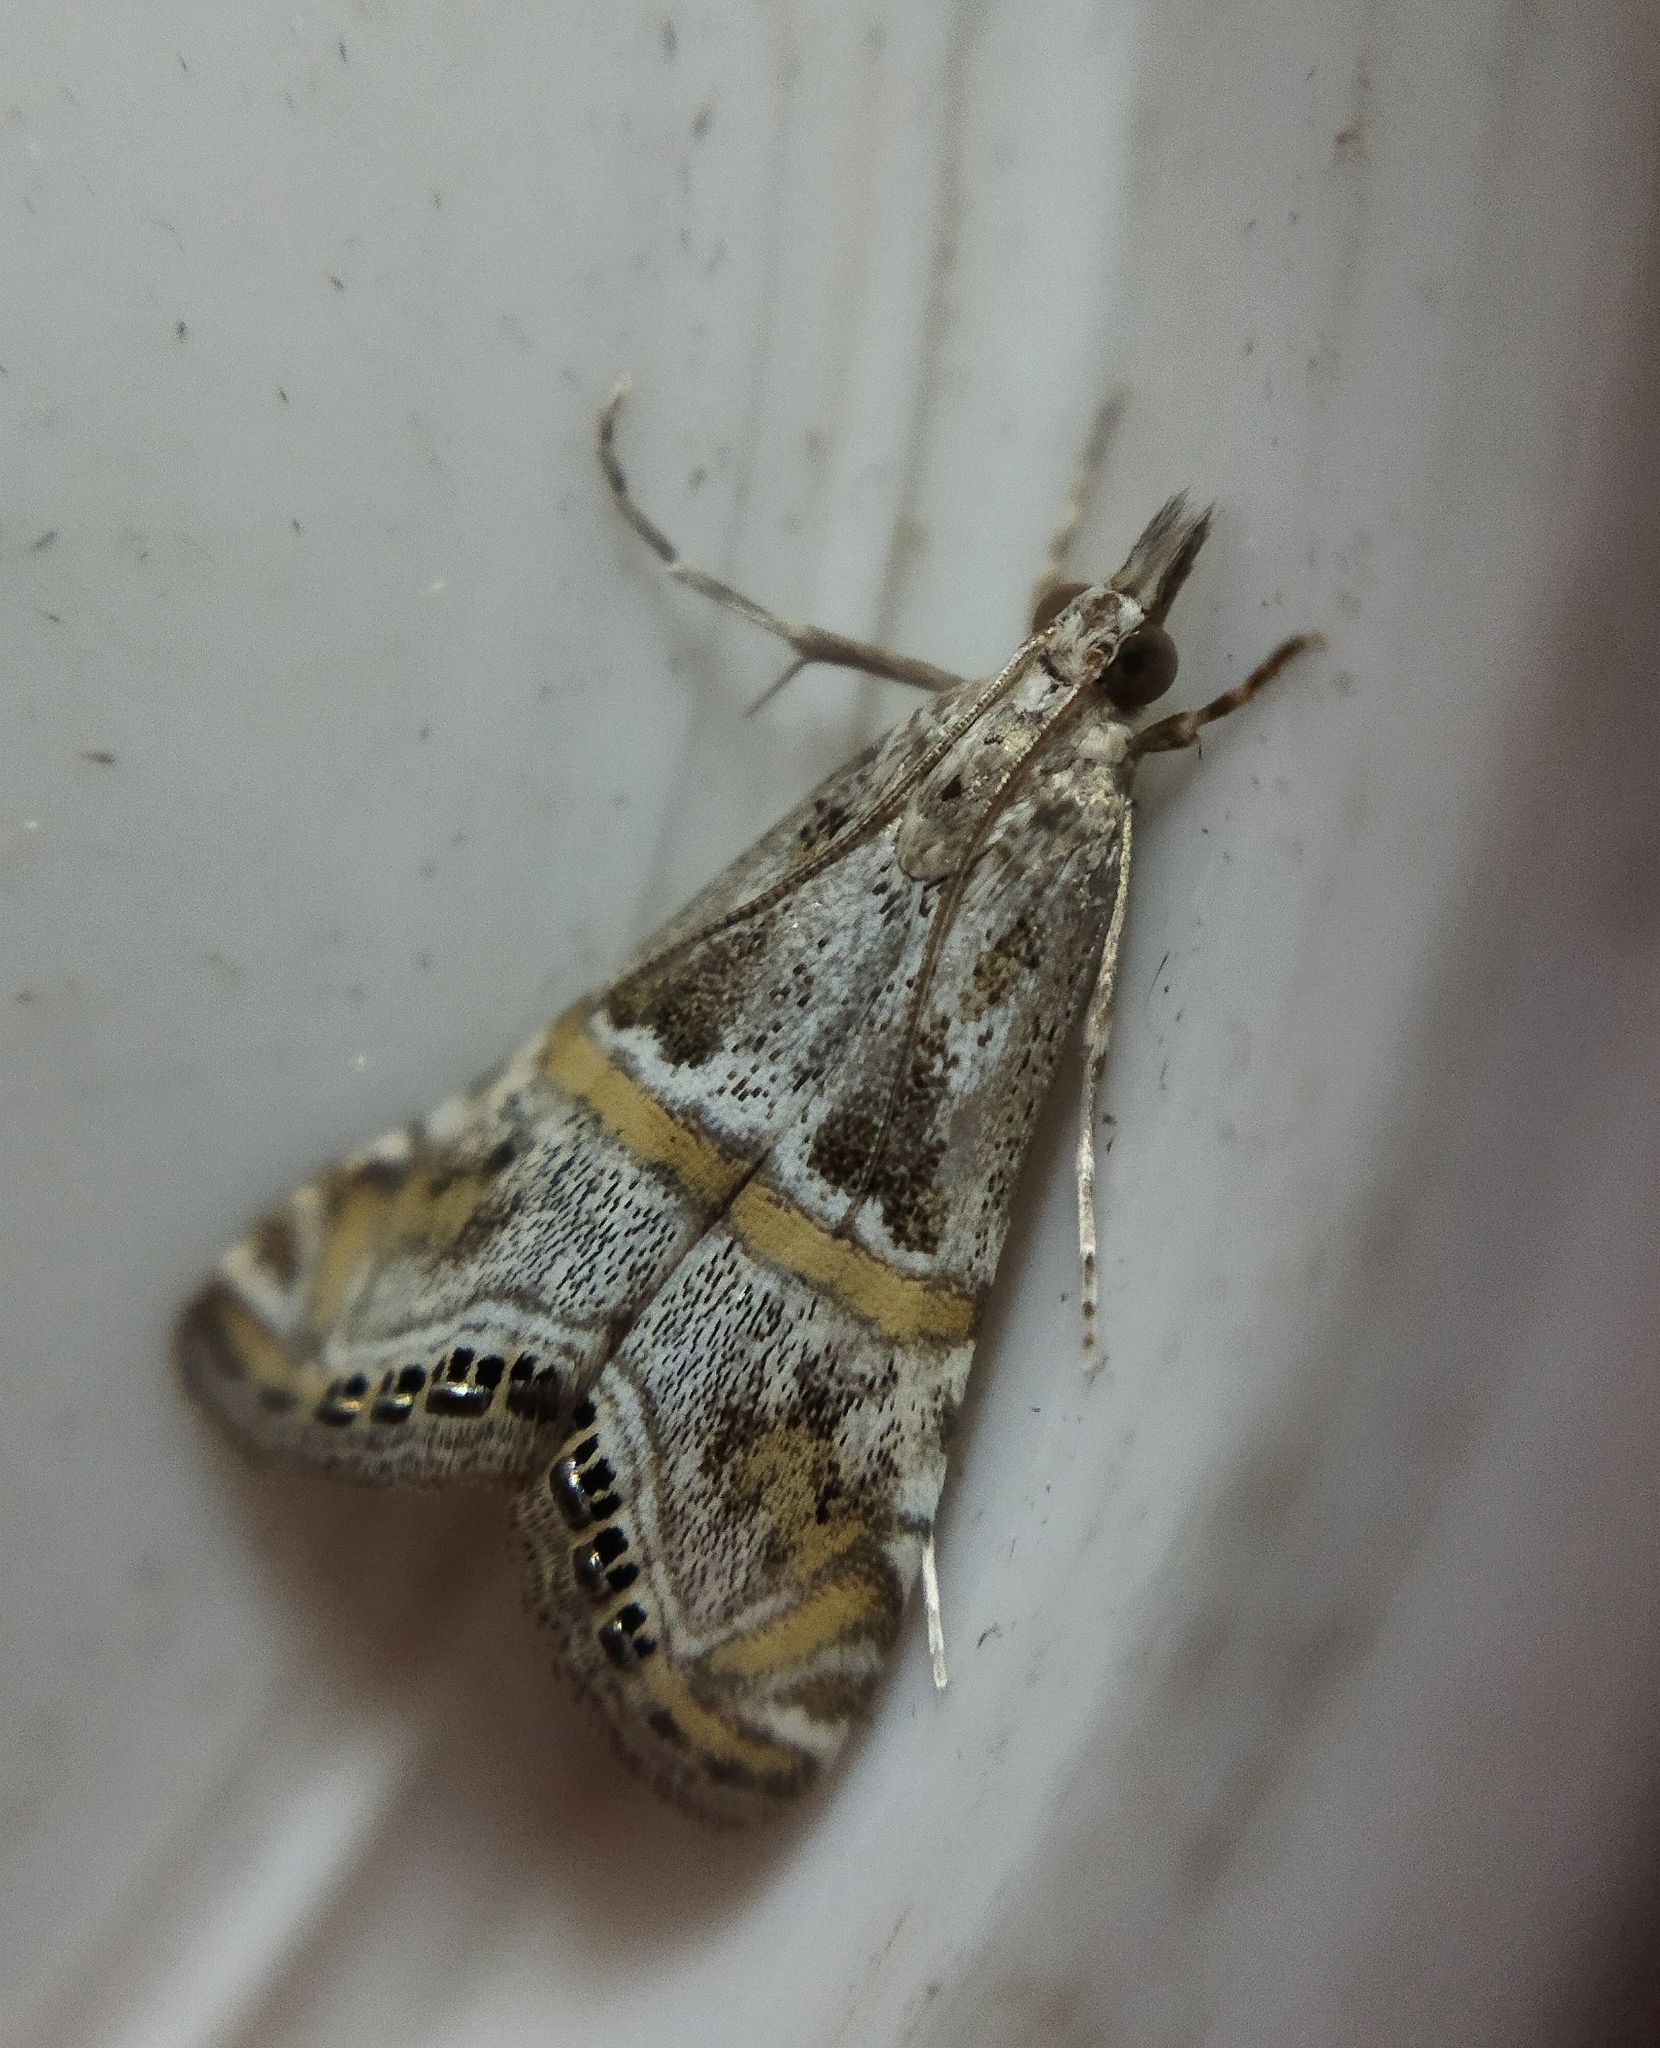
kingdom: Animalia
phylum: Arthropoda
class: Insecta
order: Lepidoptera
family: Crambidae
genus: Euchromius
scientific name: Euchromius jaxartella
